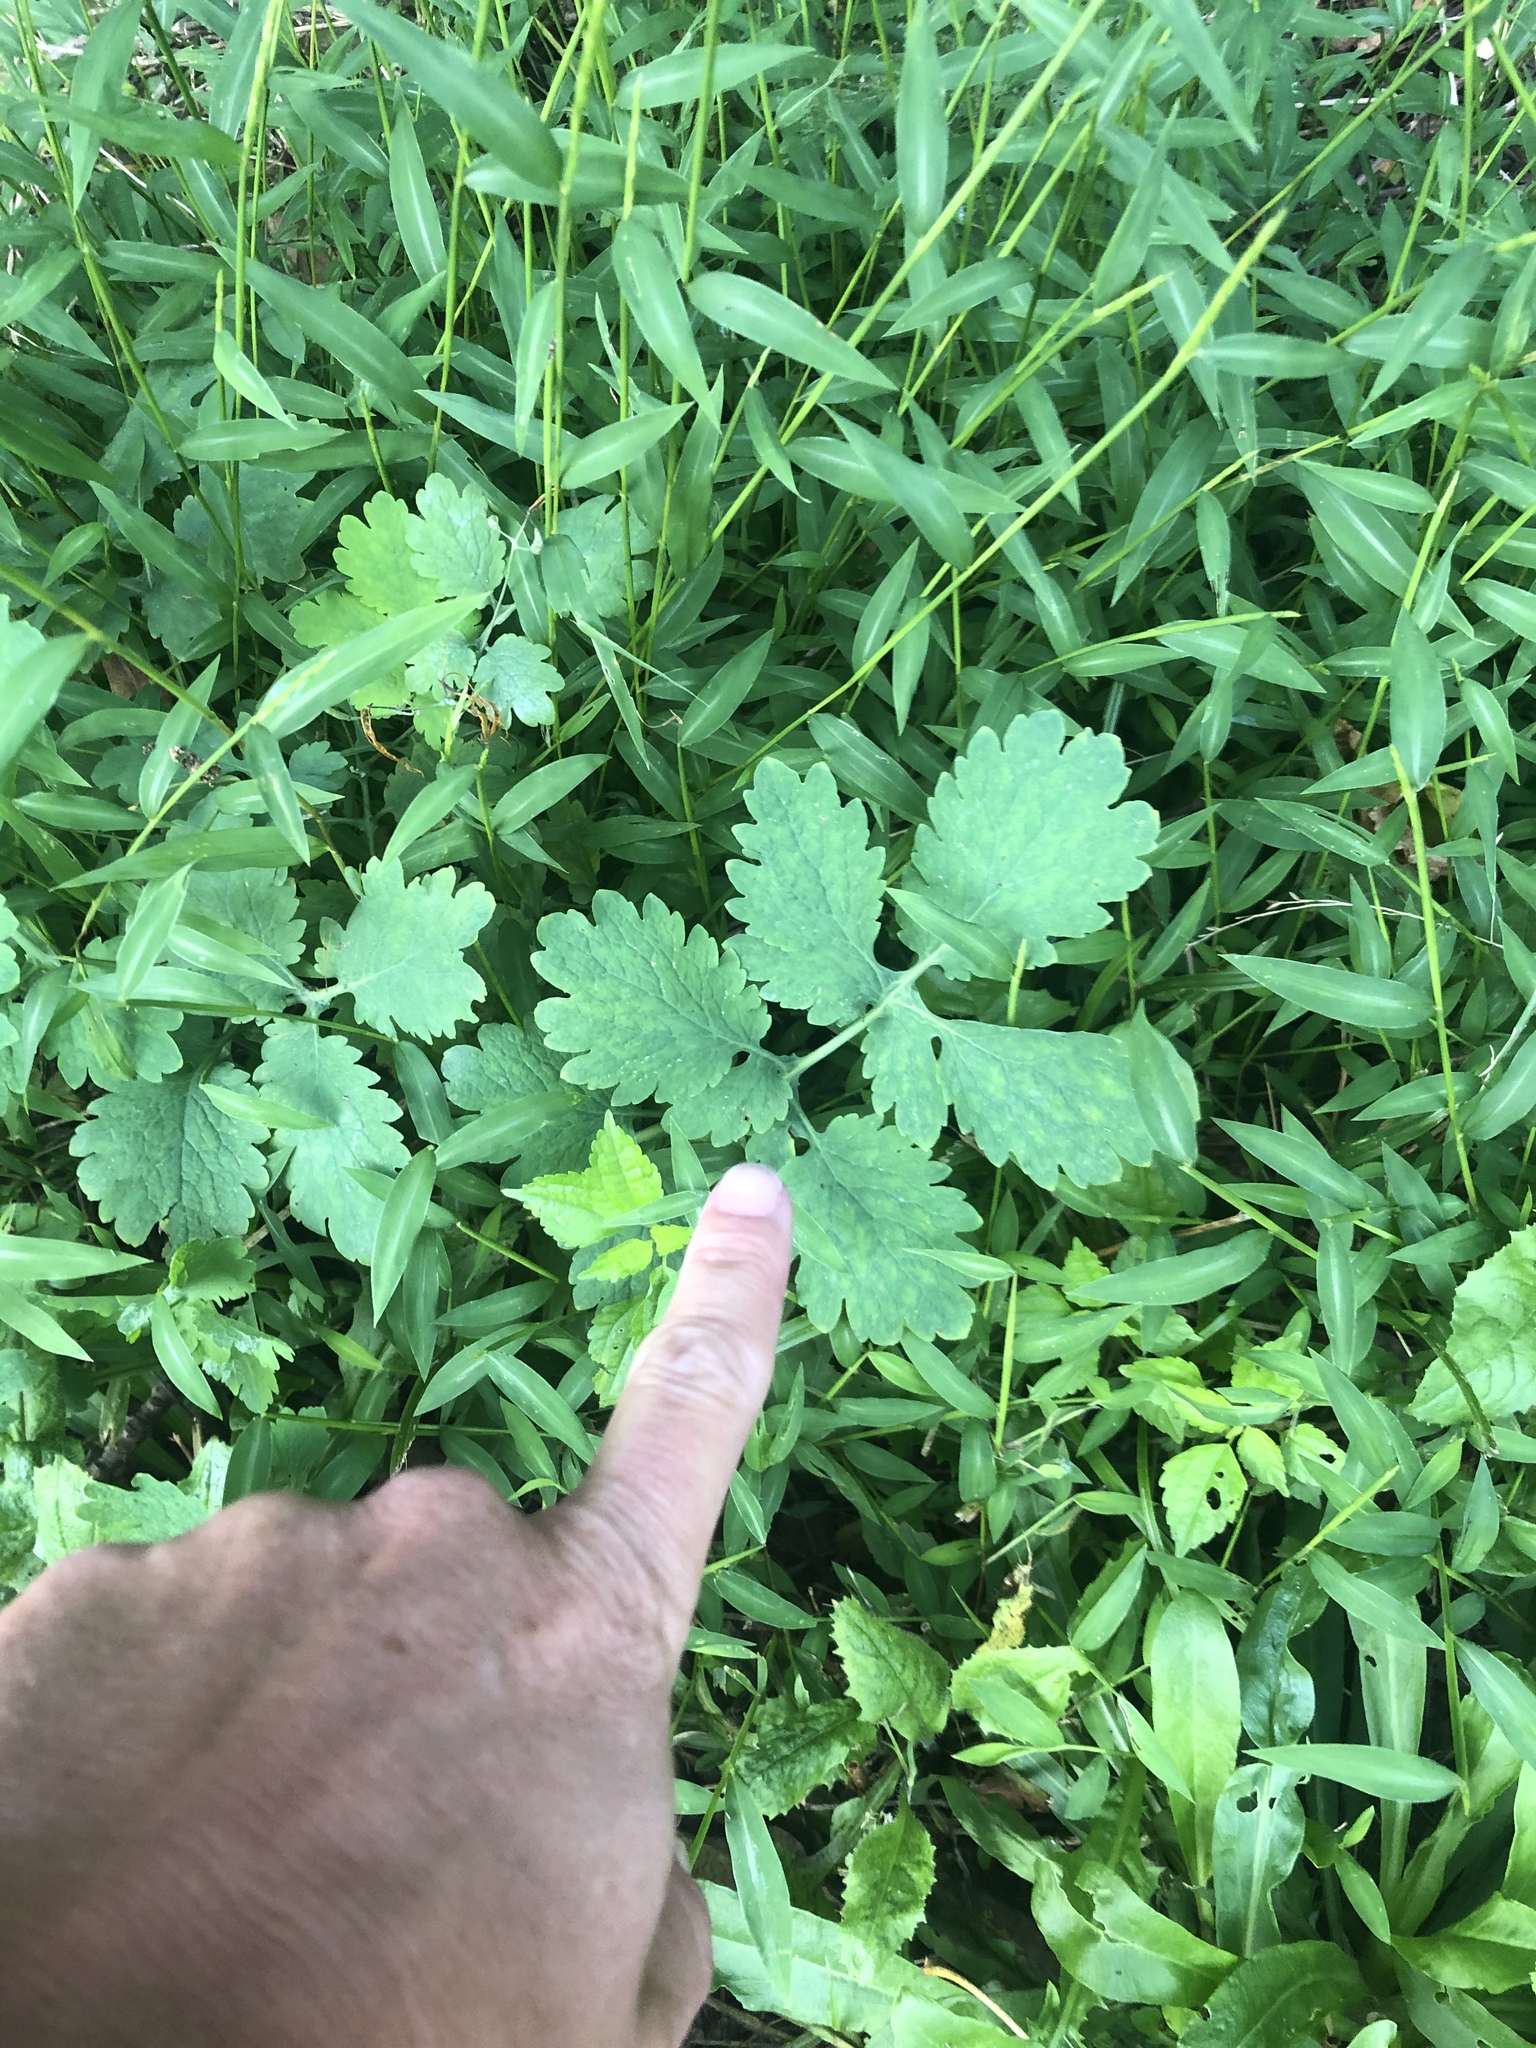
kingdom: Plantae
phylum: Tracheophyta
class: Magnoliopsida
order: Ranunculales
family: Papaveraceae
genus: Chelidonium
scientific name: Chelidonium majus
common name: Greater celandine
